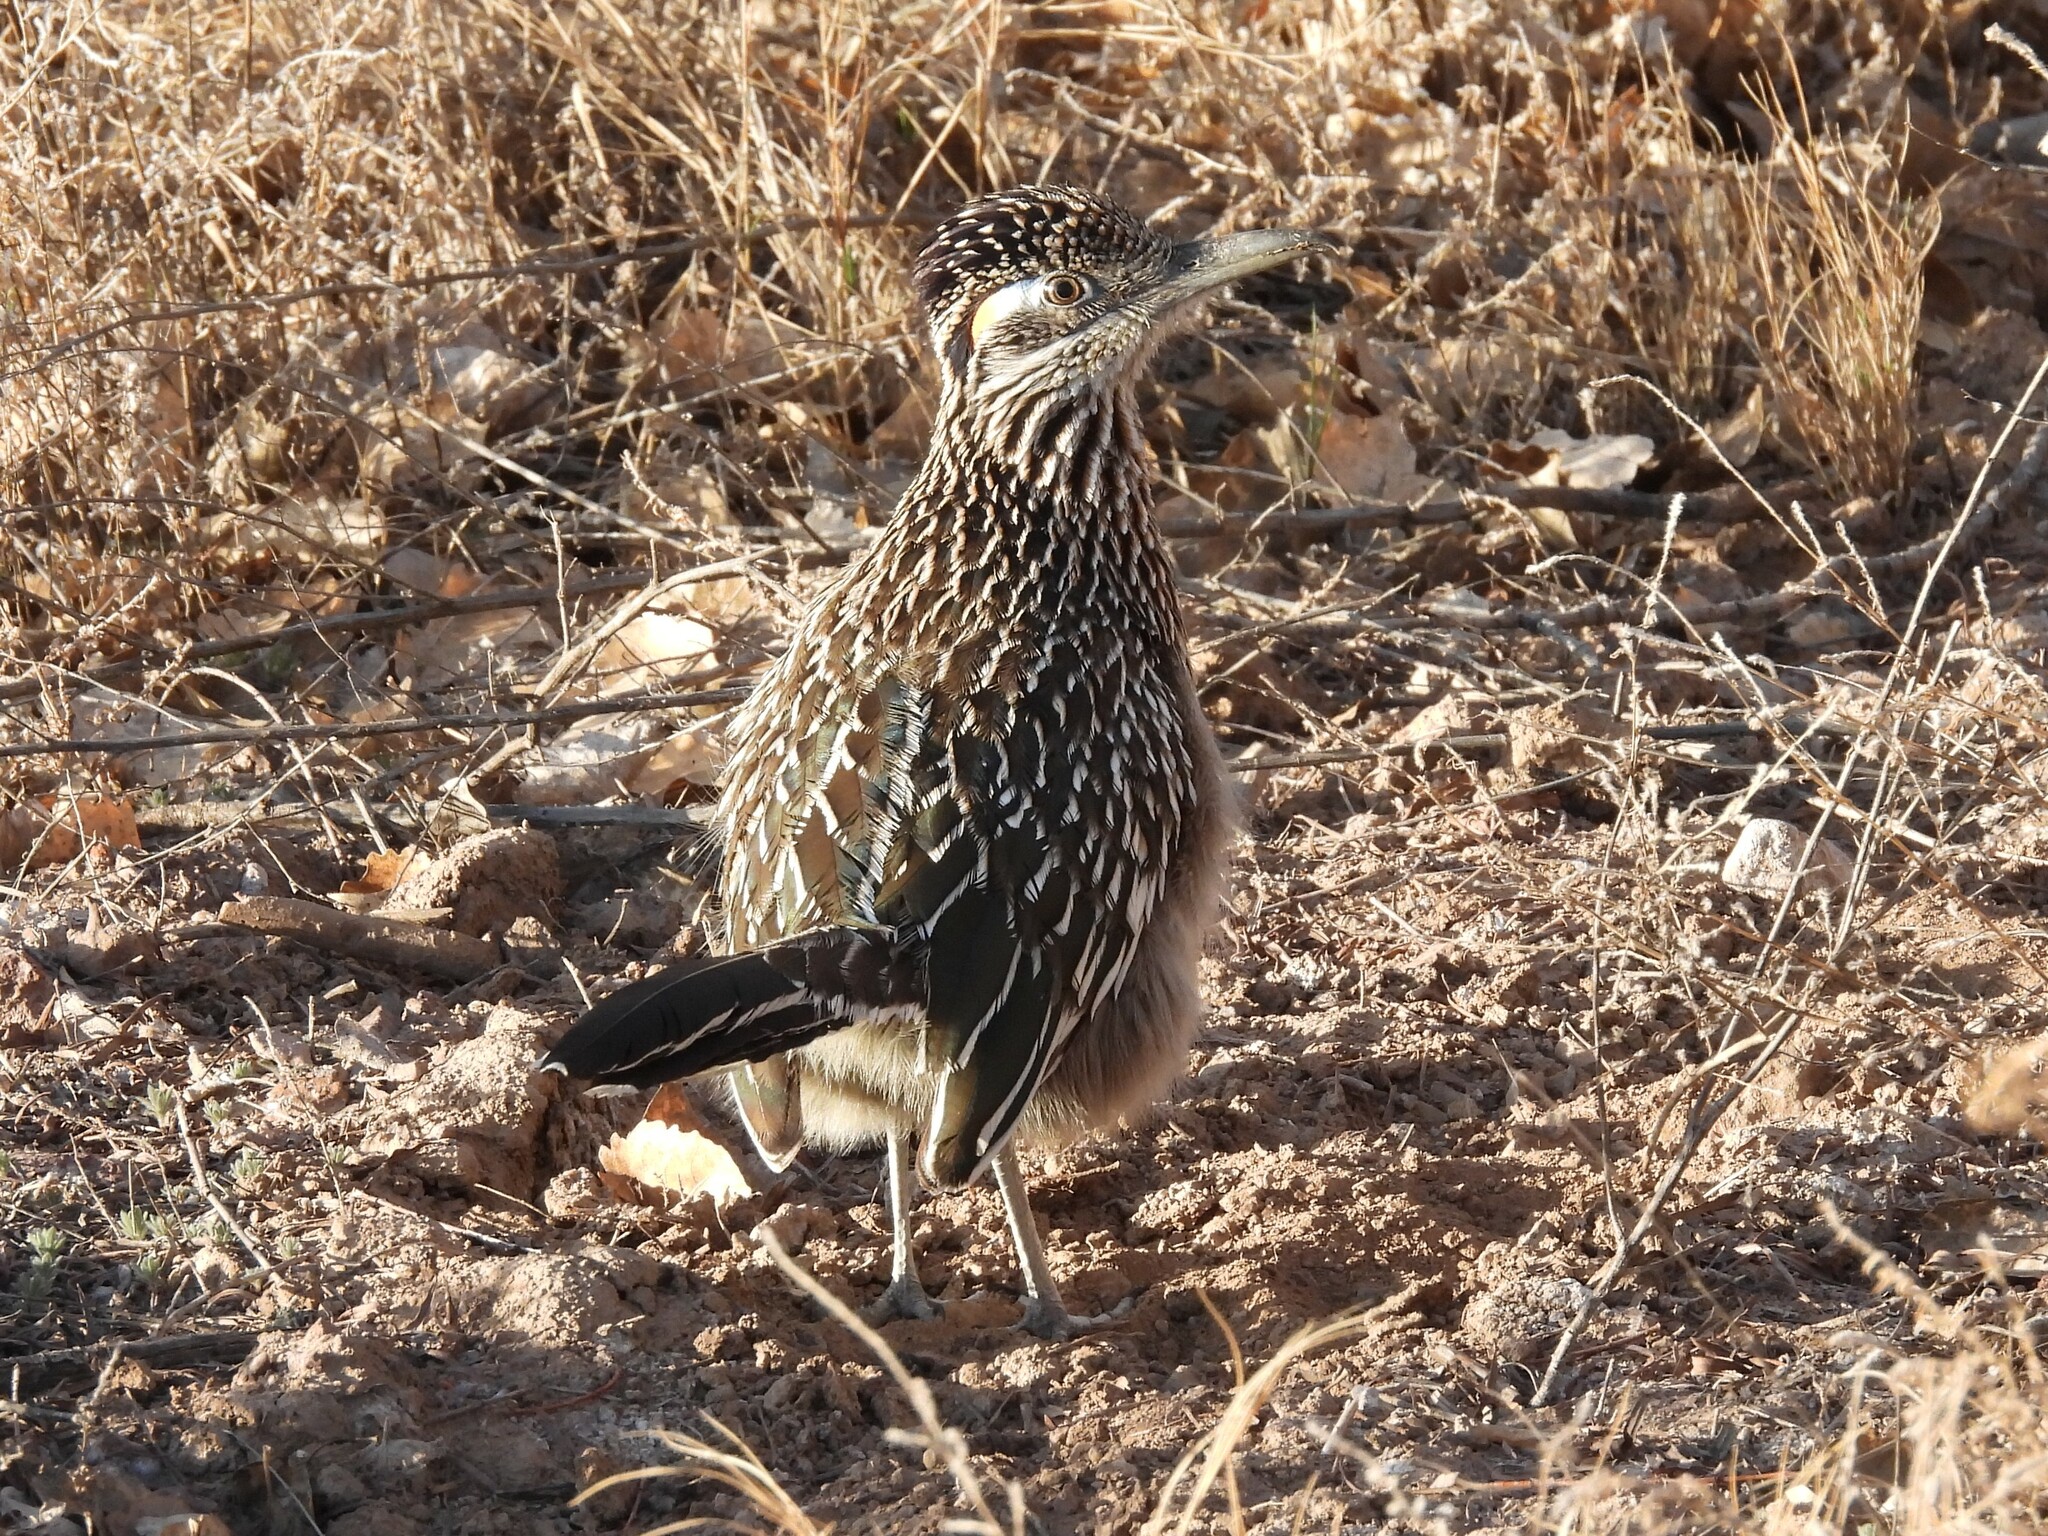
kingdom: Animalia
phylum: Chordata
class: Aves
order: Cuculiformes
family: Cuculidae
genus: Geococcyx
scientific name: Geococcyx californianus
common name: Greater roadrunner
